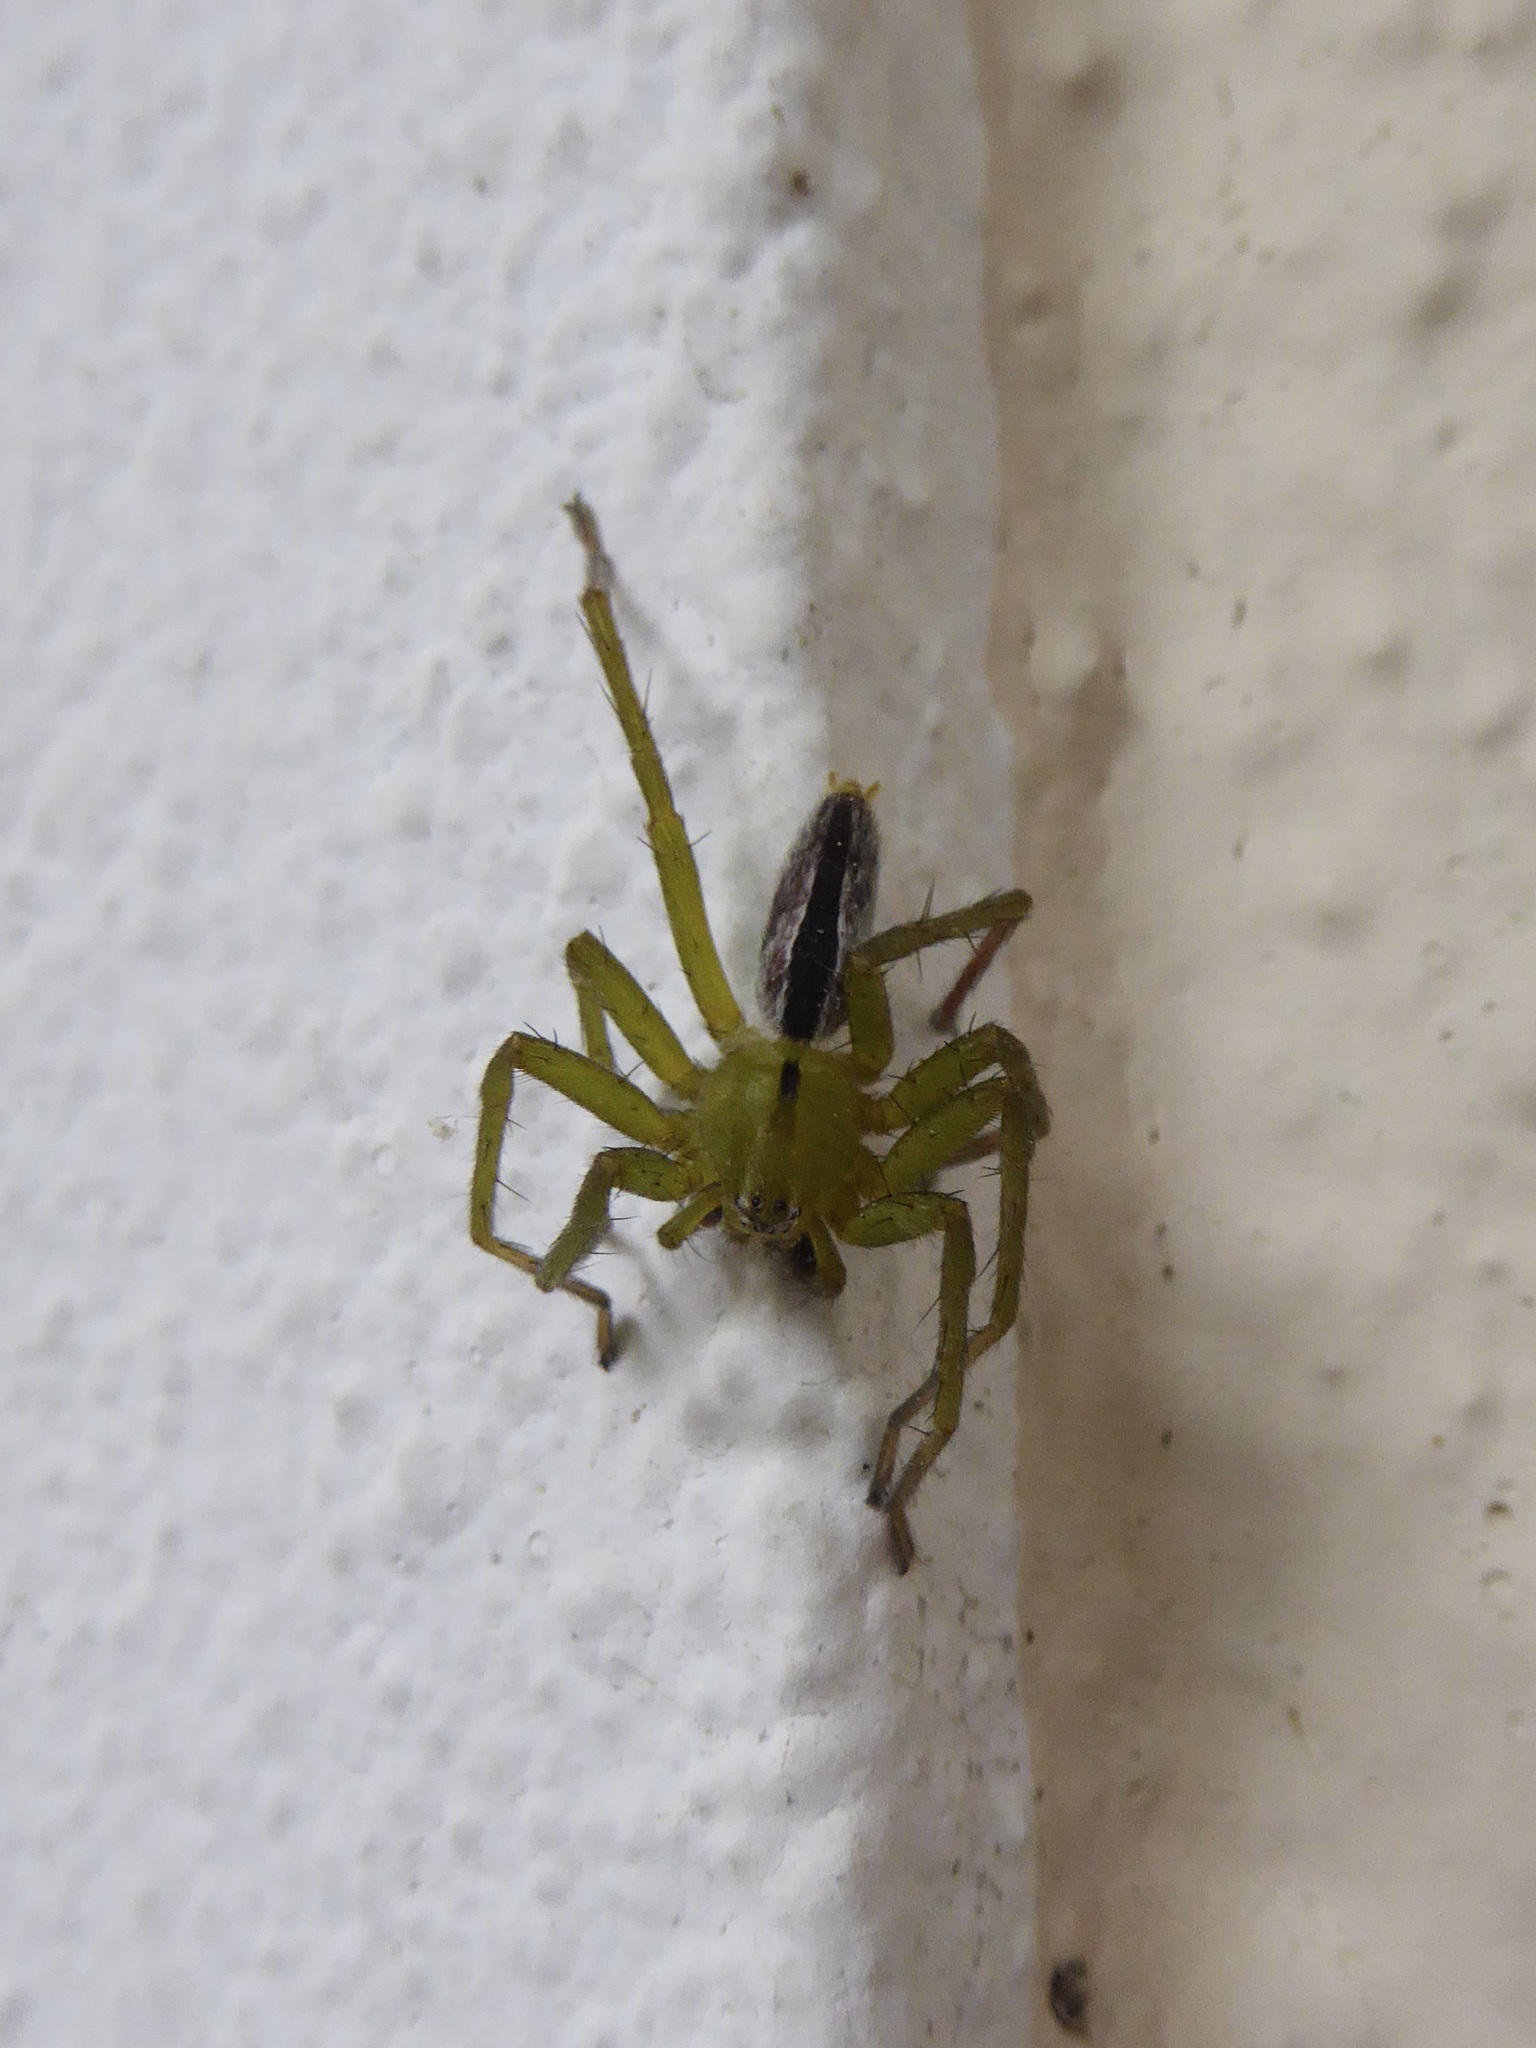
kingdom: Animalia
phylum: Arthropoda
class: Arachnida
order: Araneae
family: Sparassidae
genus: Micrommata
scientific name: Micrommata ligurina
